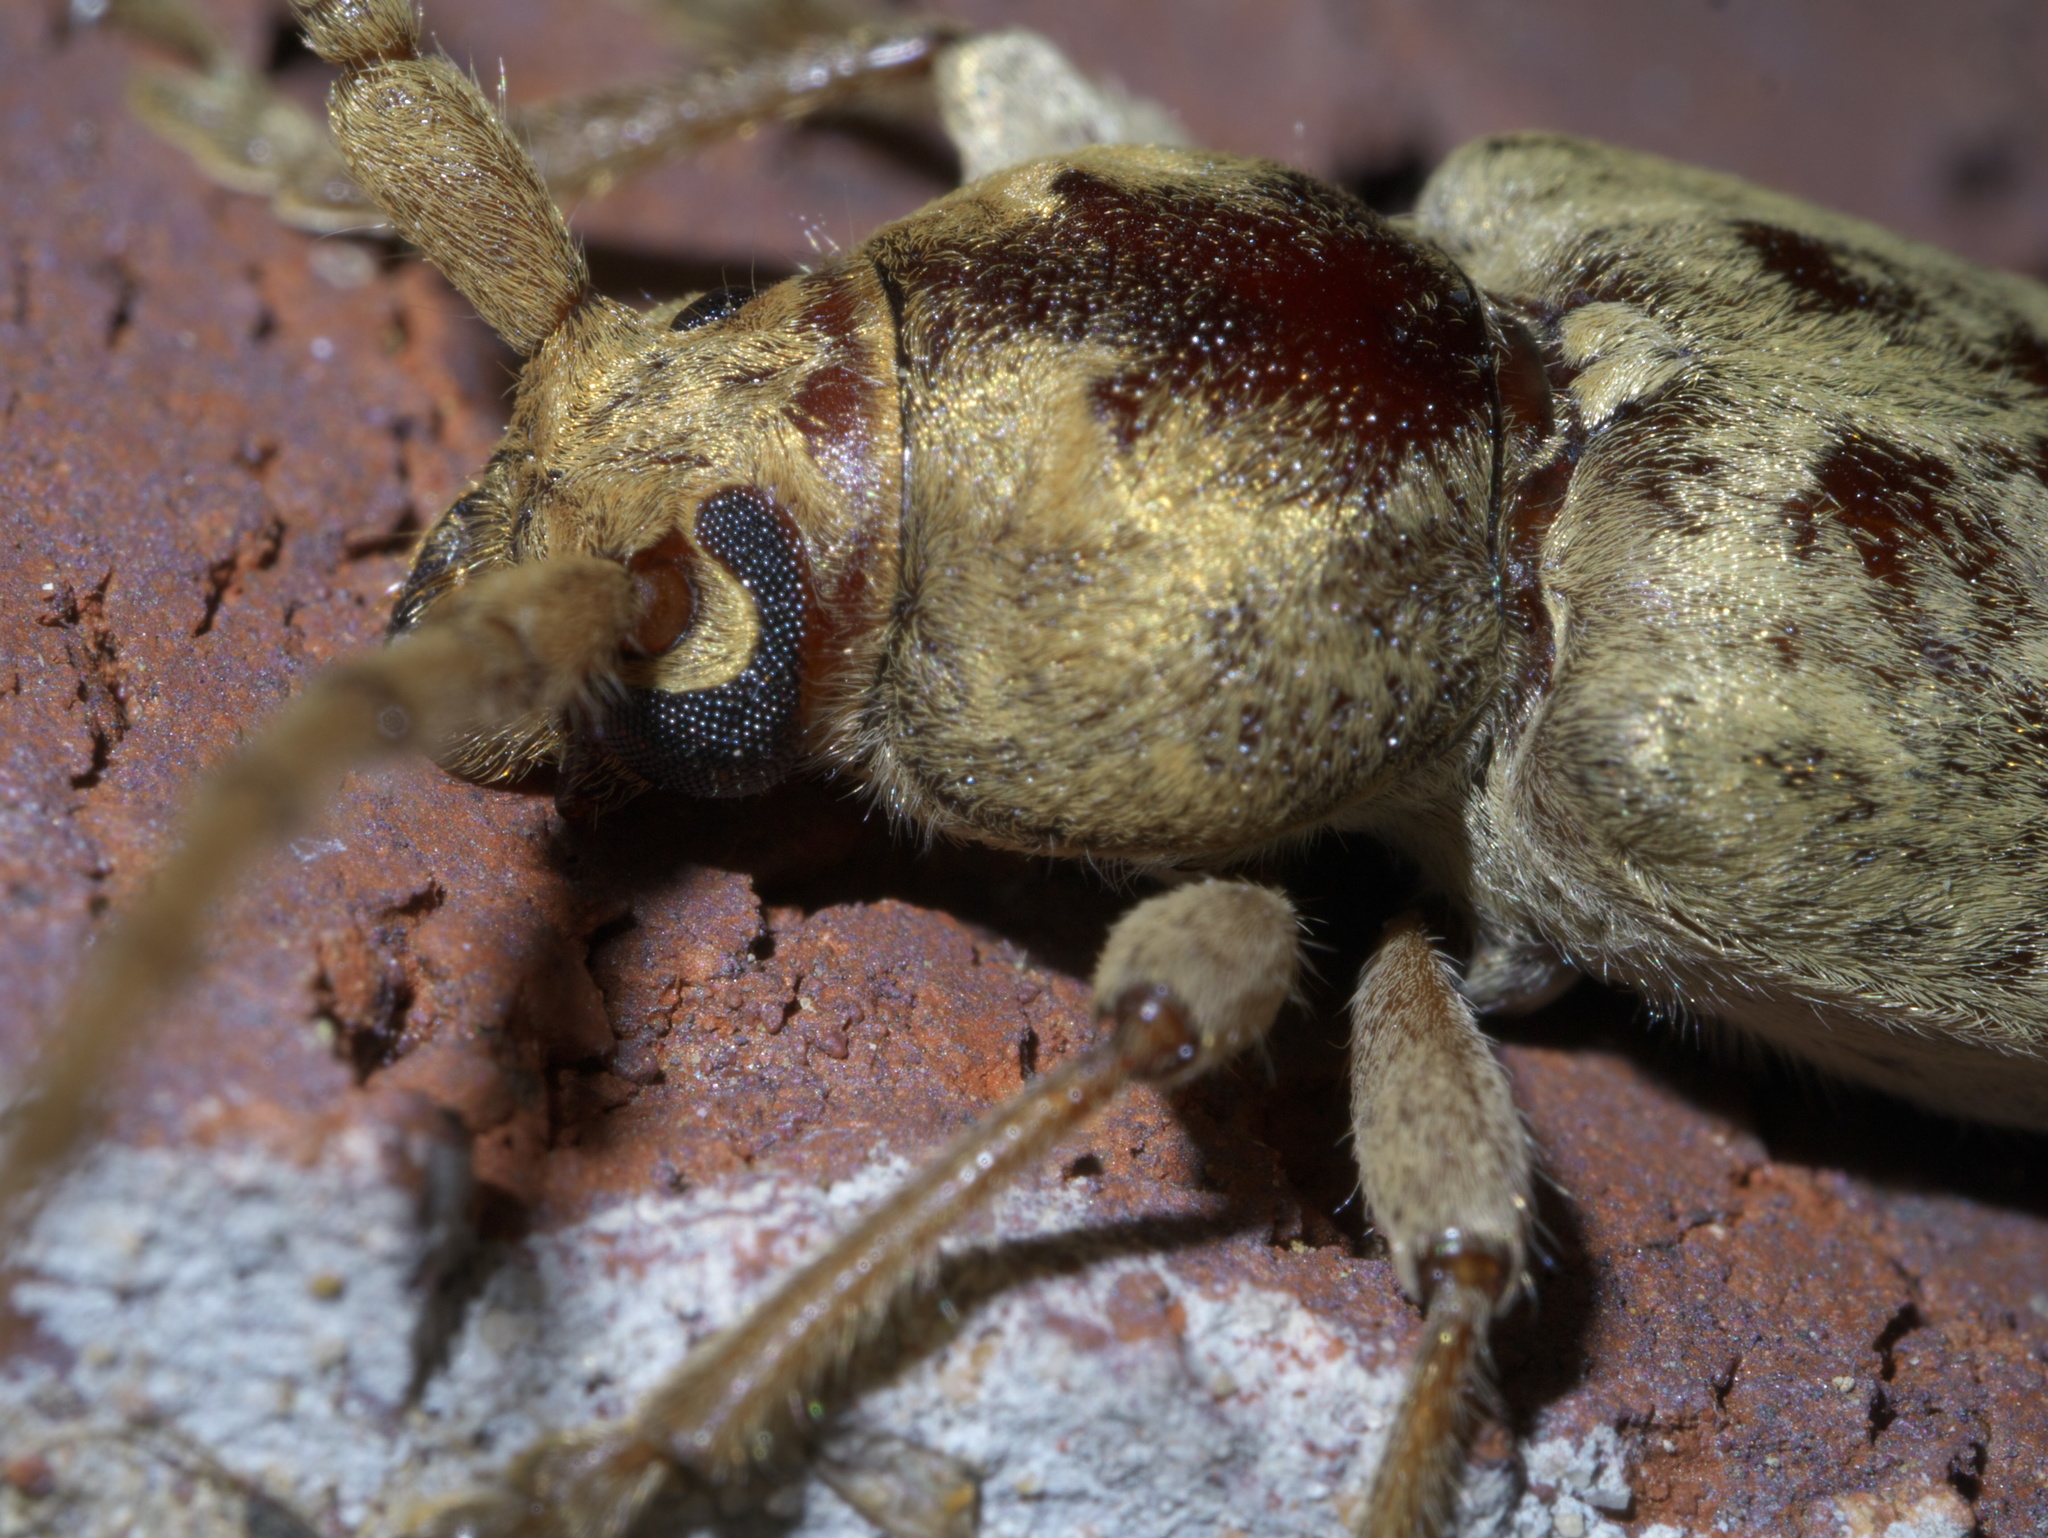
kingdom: Animalia
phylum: Arthropoda
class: Insecta
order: Coleoptera
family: Cerambycidae
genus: Enaphalodes
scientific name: Enaphalodes rufulus
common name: Red oak borer
